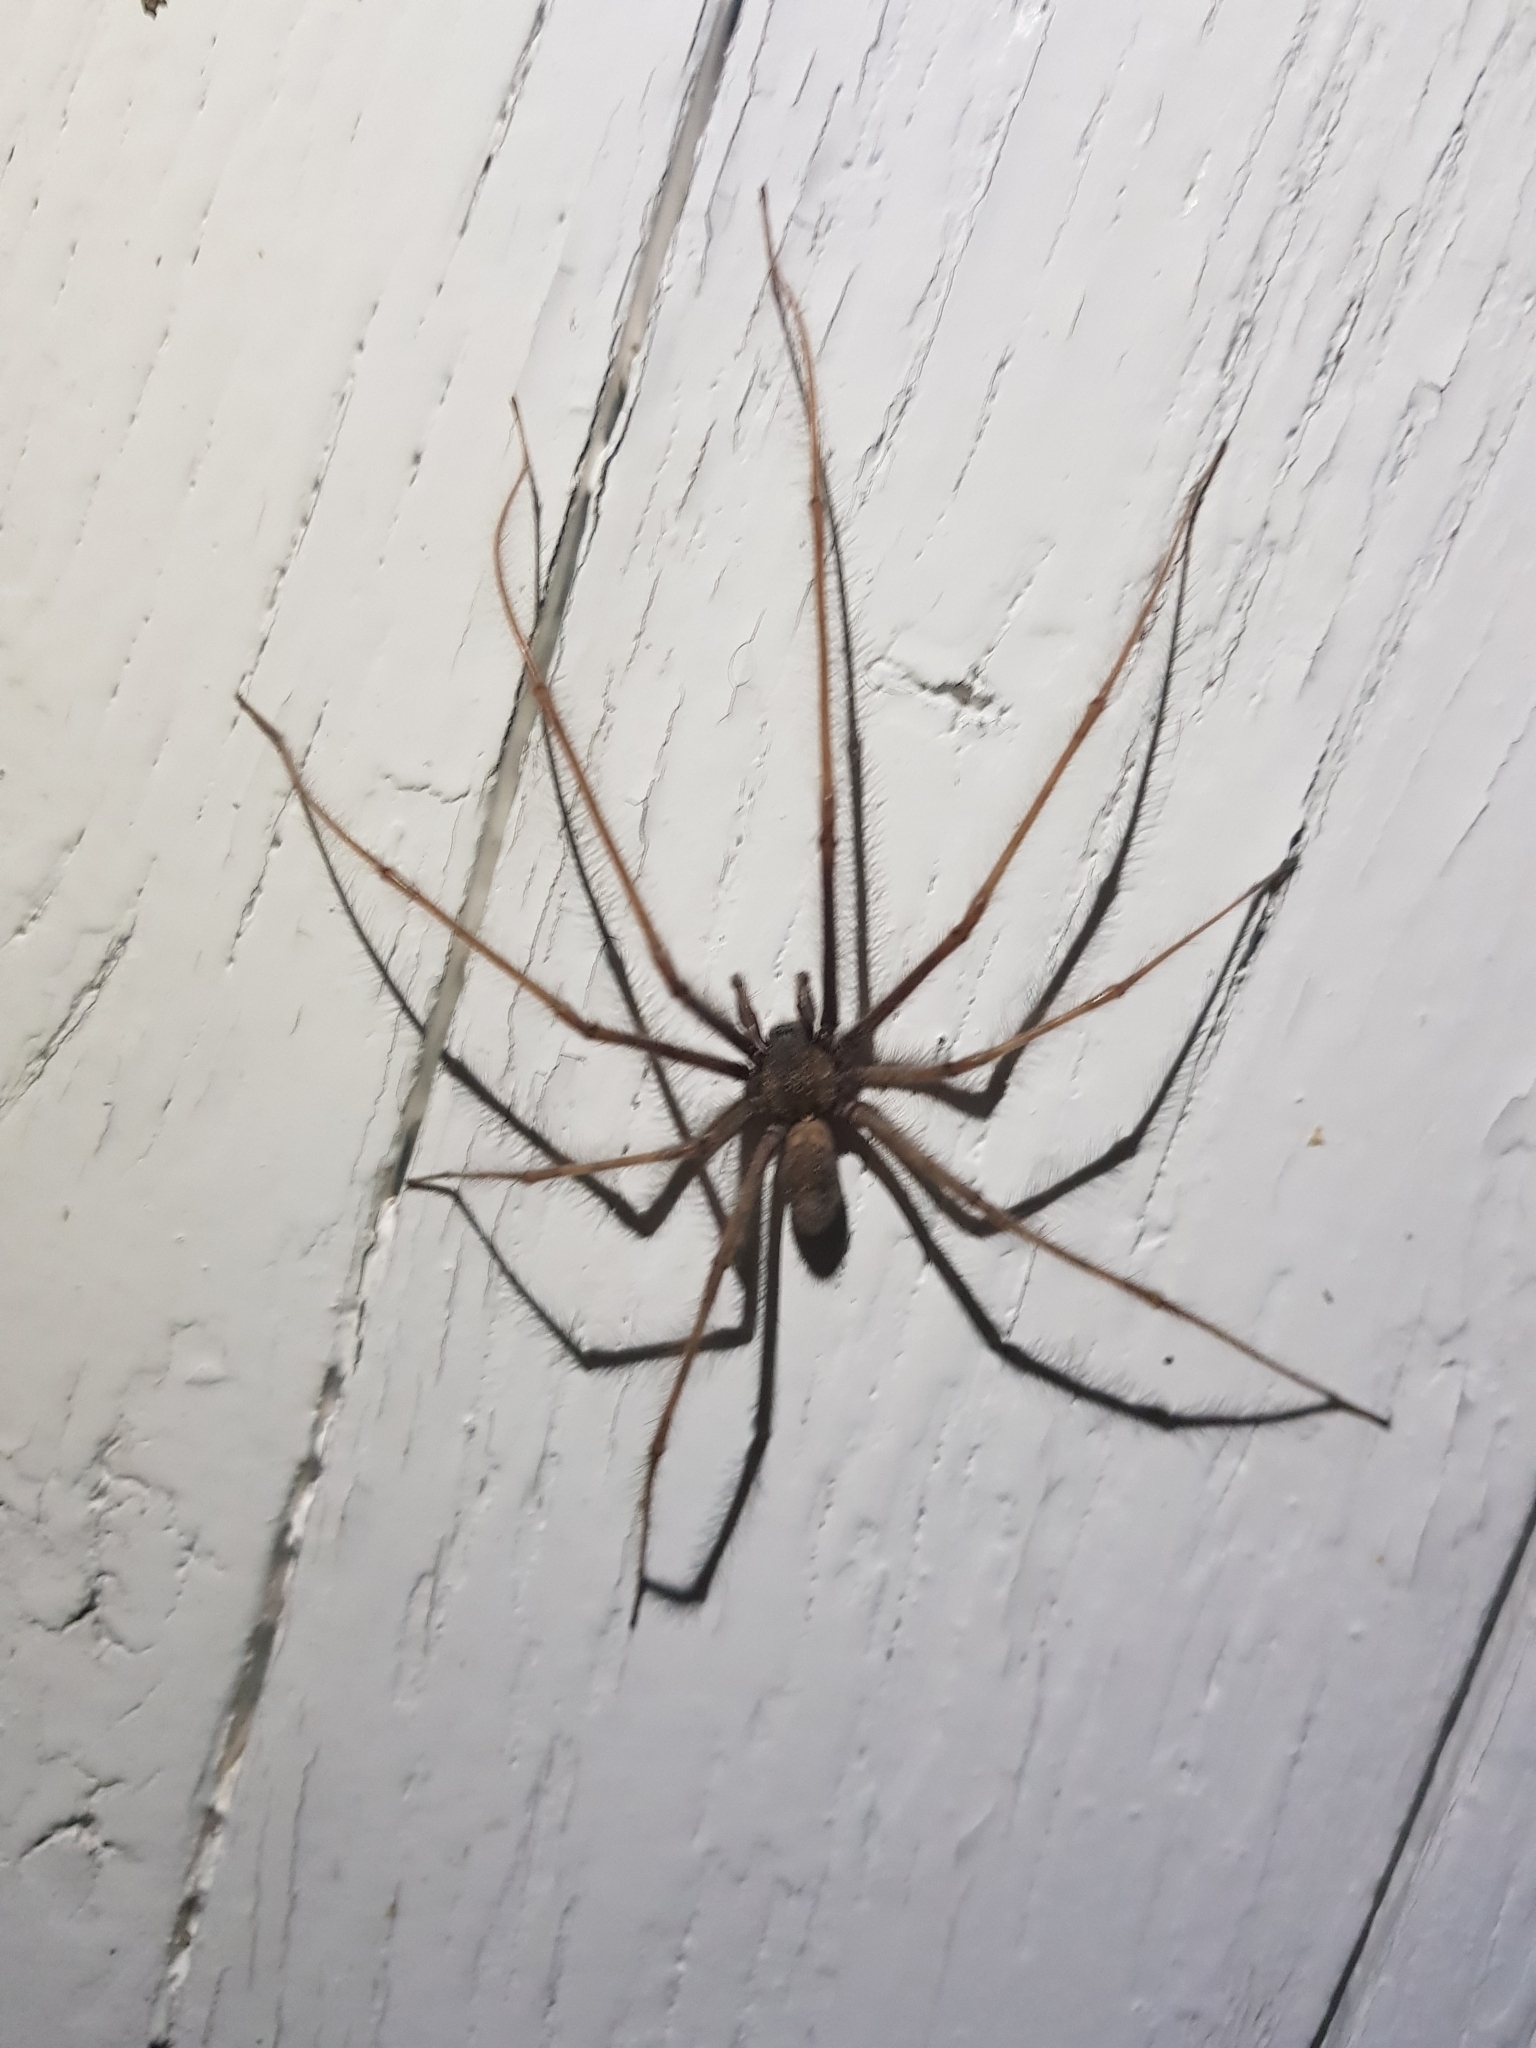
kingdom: Animalia
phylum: Arthropoda
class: Arachnida
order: Araneae
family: Agelenidae
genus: Tegenaria
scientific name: Tegenaria parietina
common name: Cardinal spider
